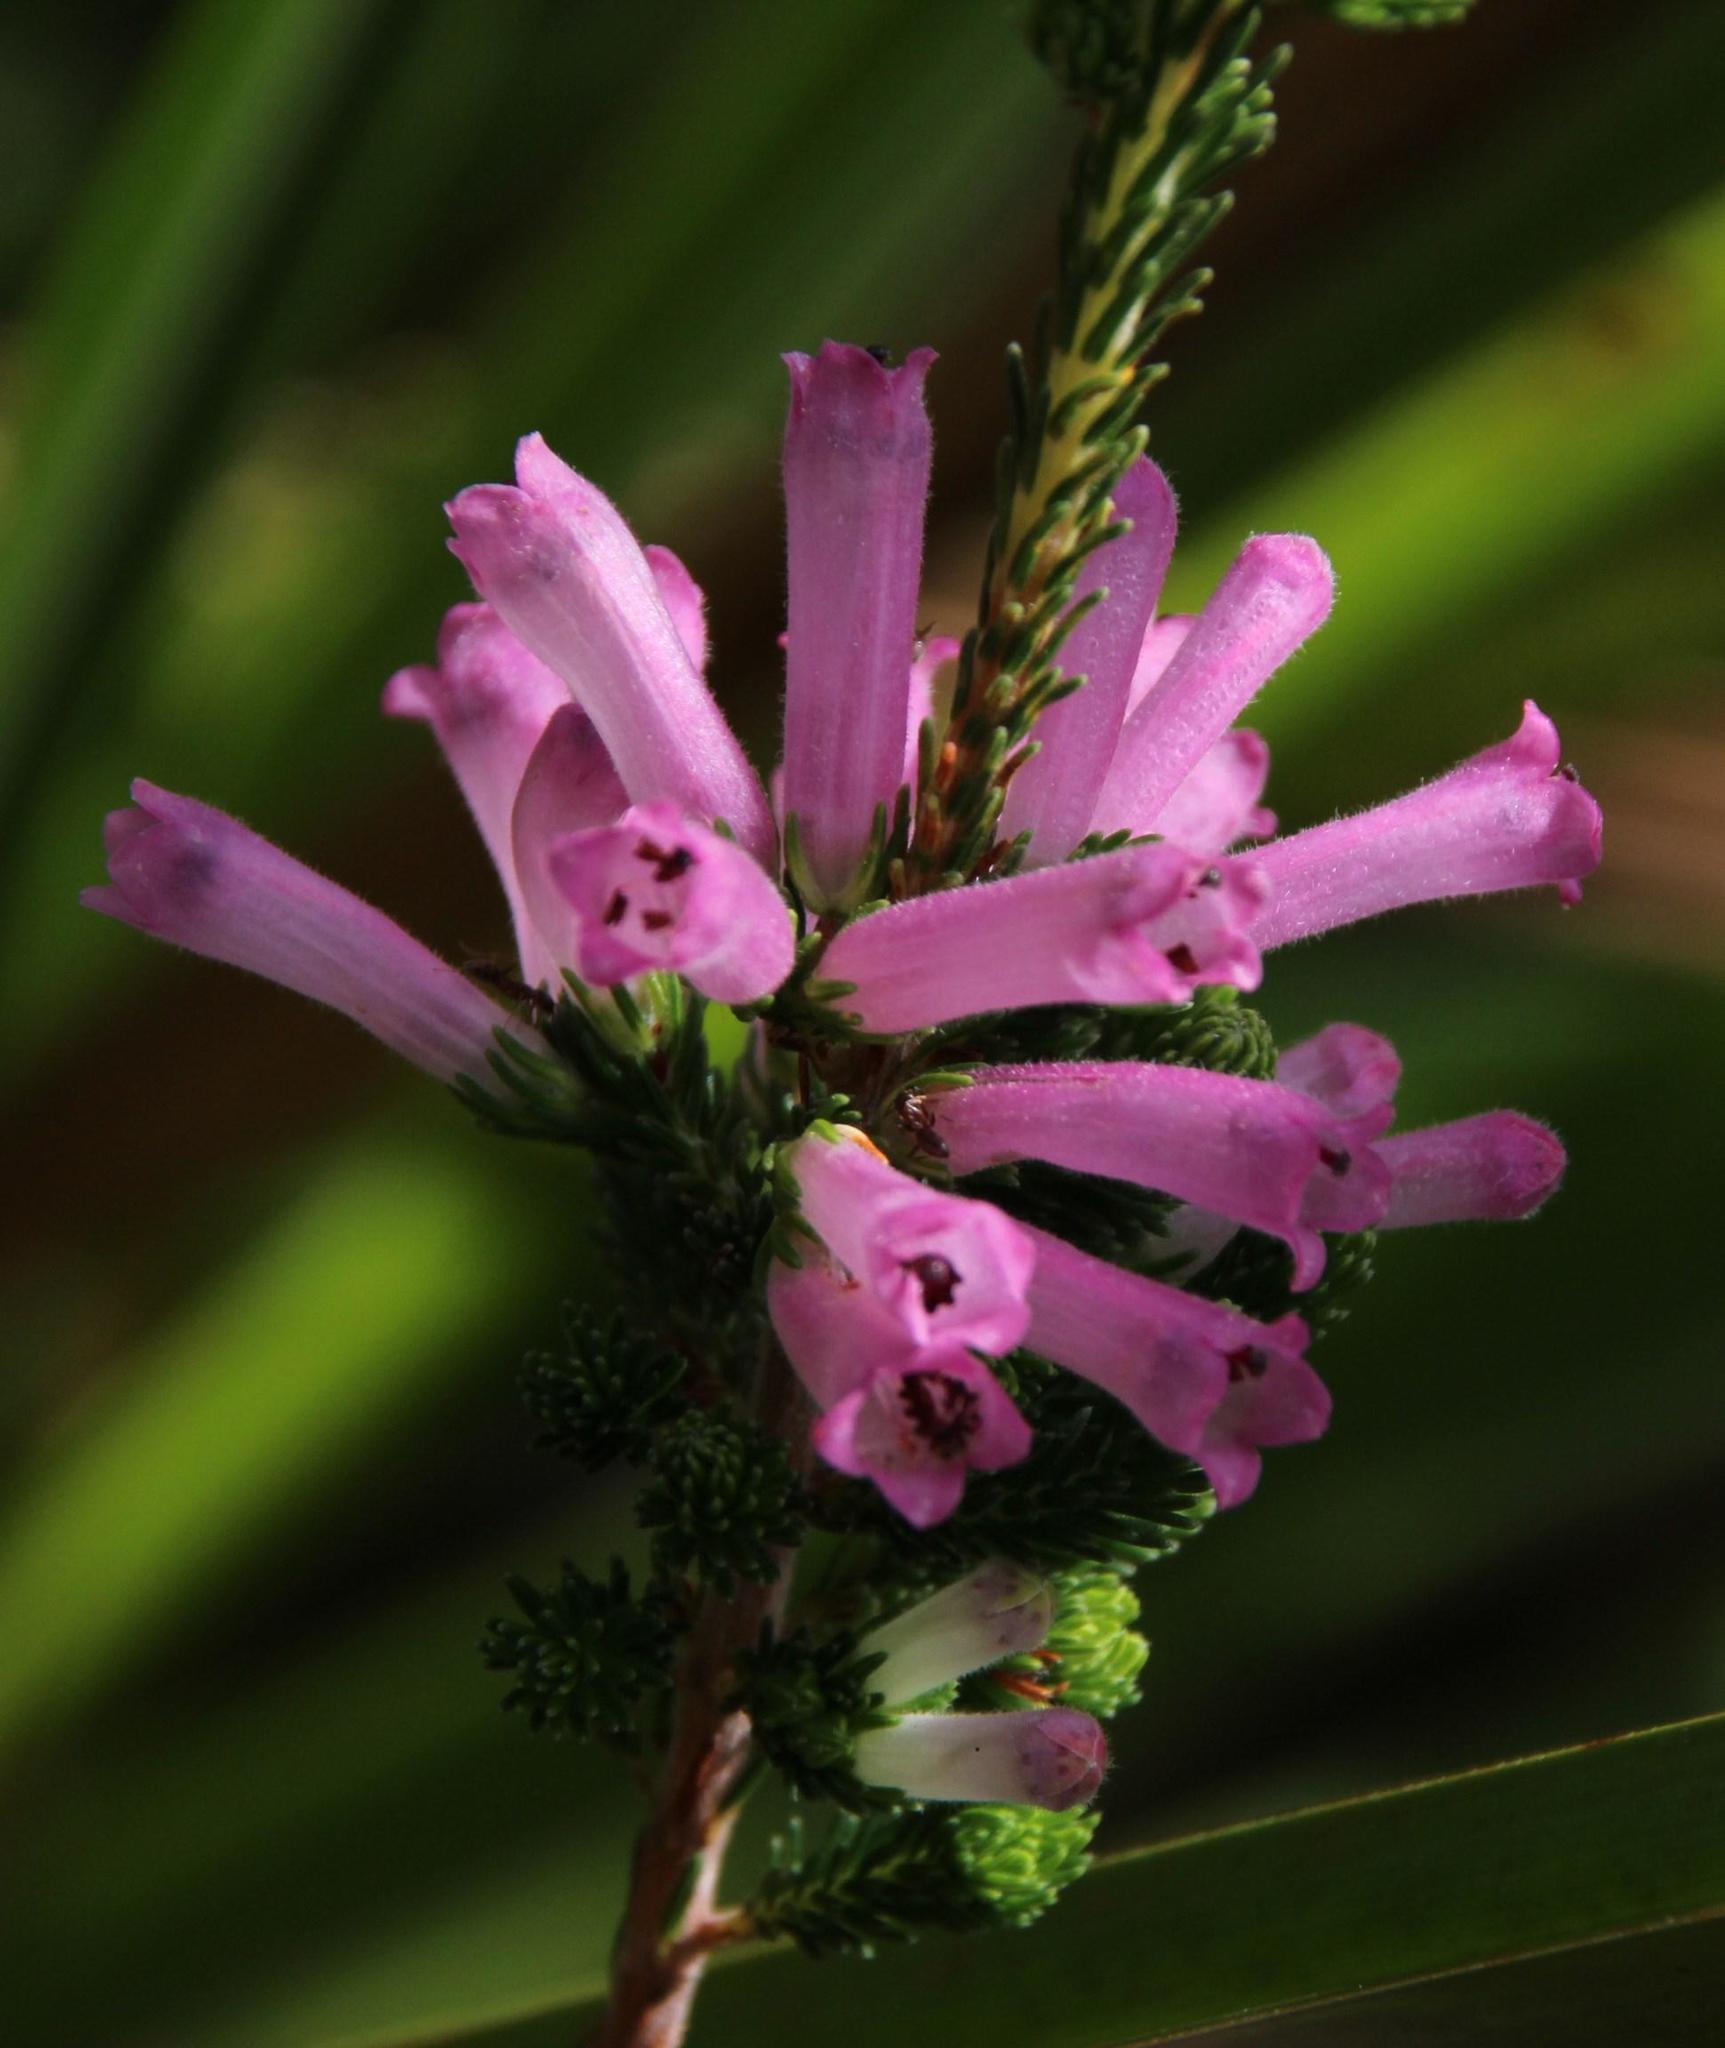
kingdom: Plantae
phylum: Tracheophyta
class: Magnoliopsida
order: Ericales
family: Ericaceae
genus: Erica
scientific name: Erica verticillata
